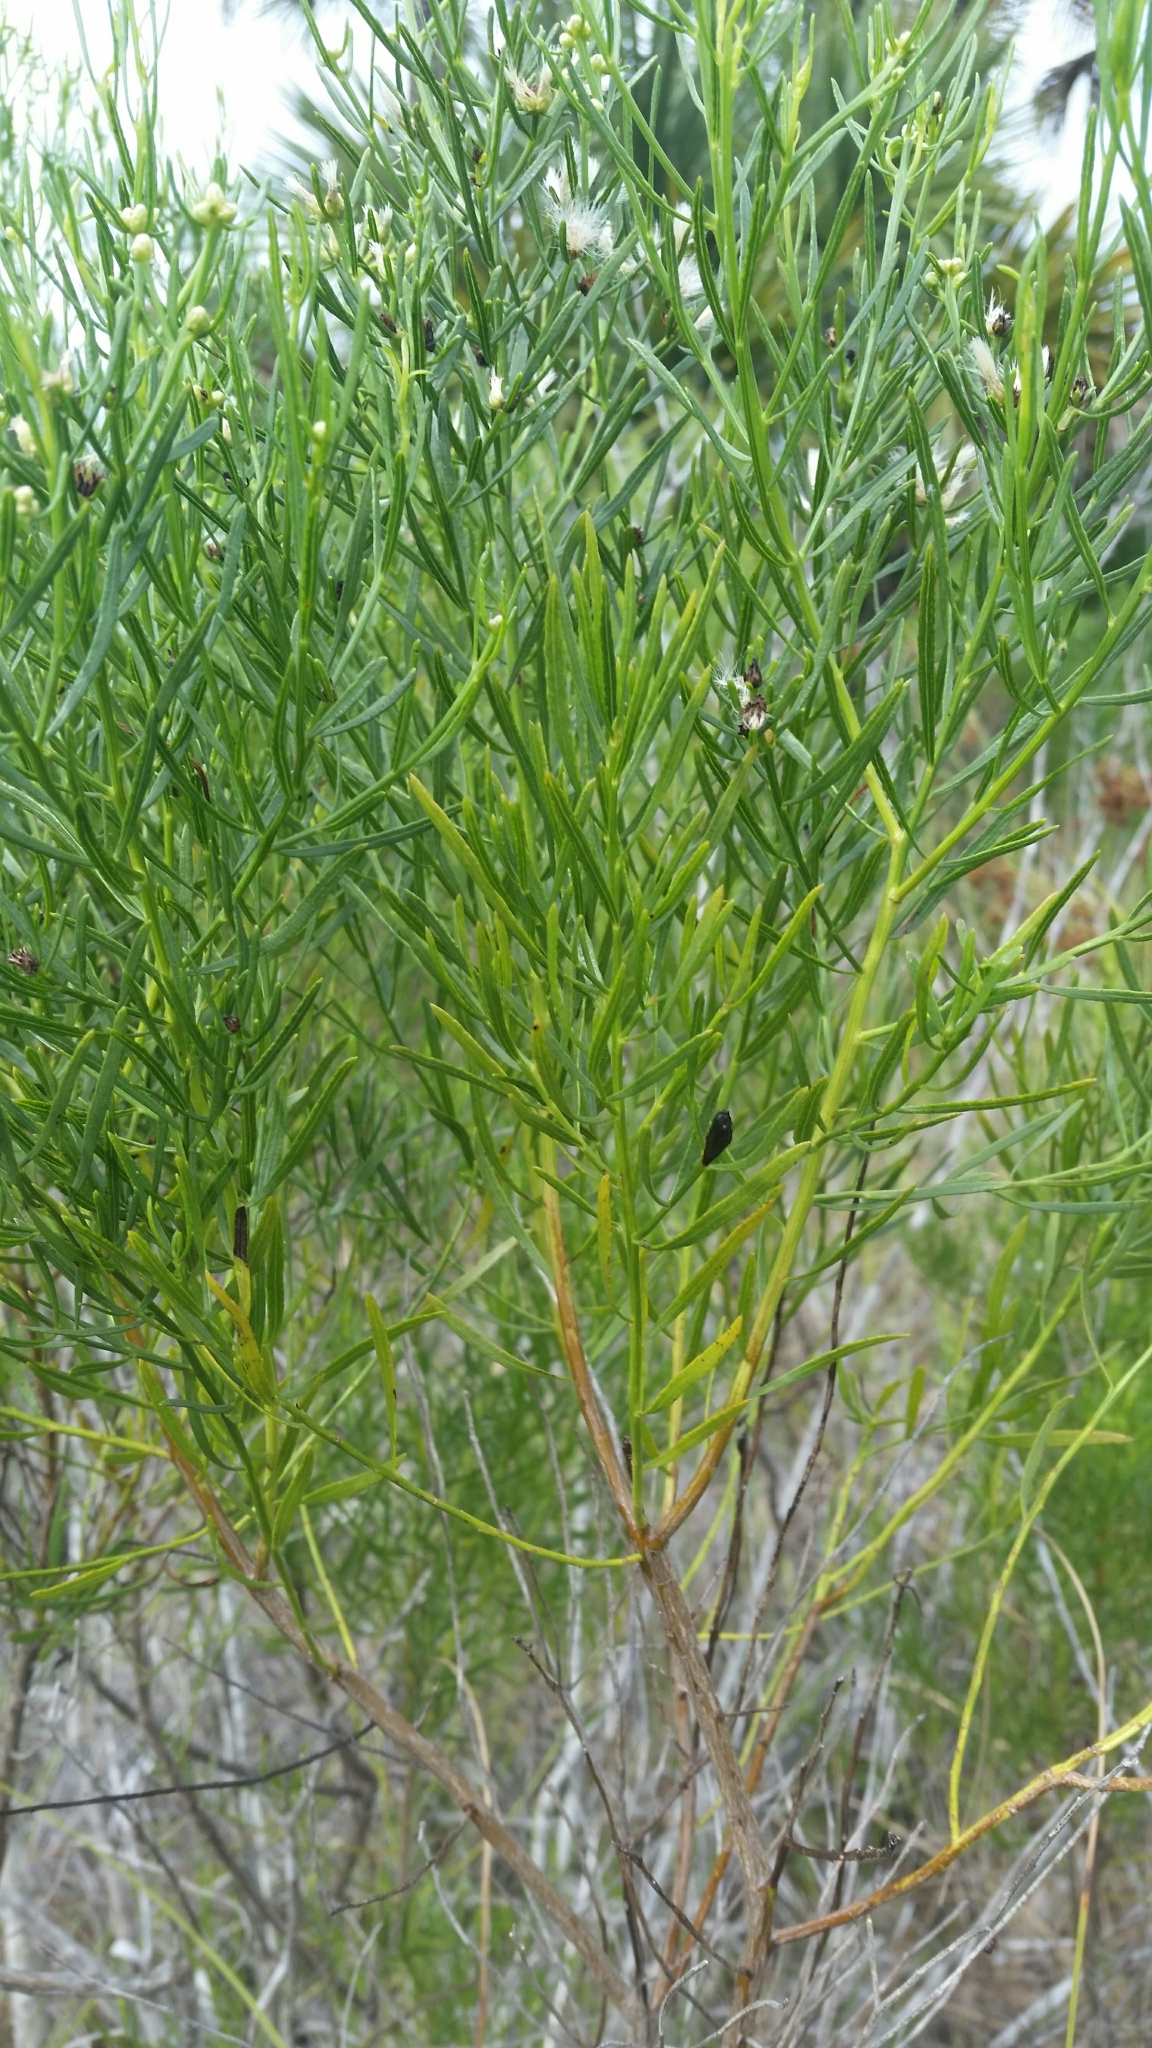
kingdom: Plantae
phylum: Tracheophyta
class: Magnoliopsida
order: Asterales
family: Asteraceae
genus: Baccharis
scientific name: Baccharis angustifolia
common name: Narrow-leaf baccharis
